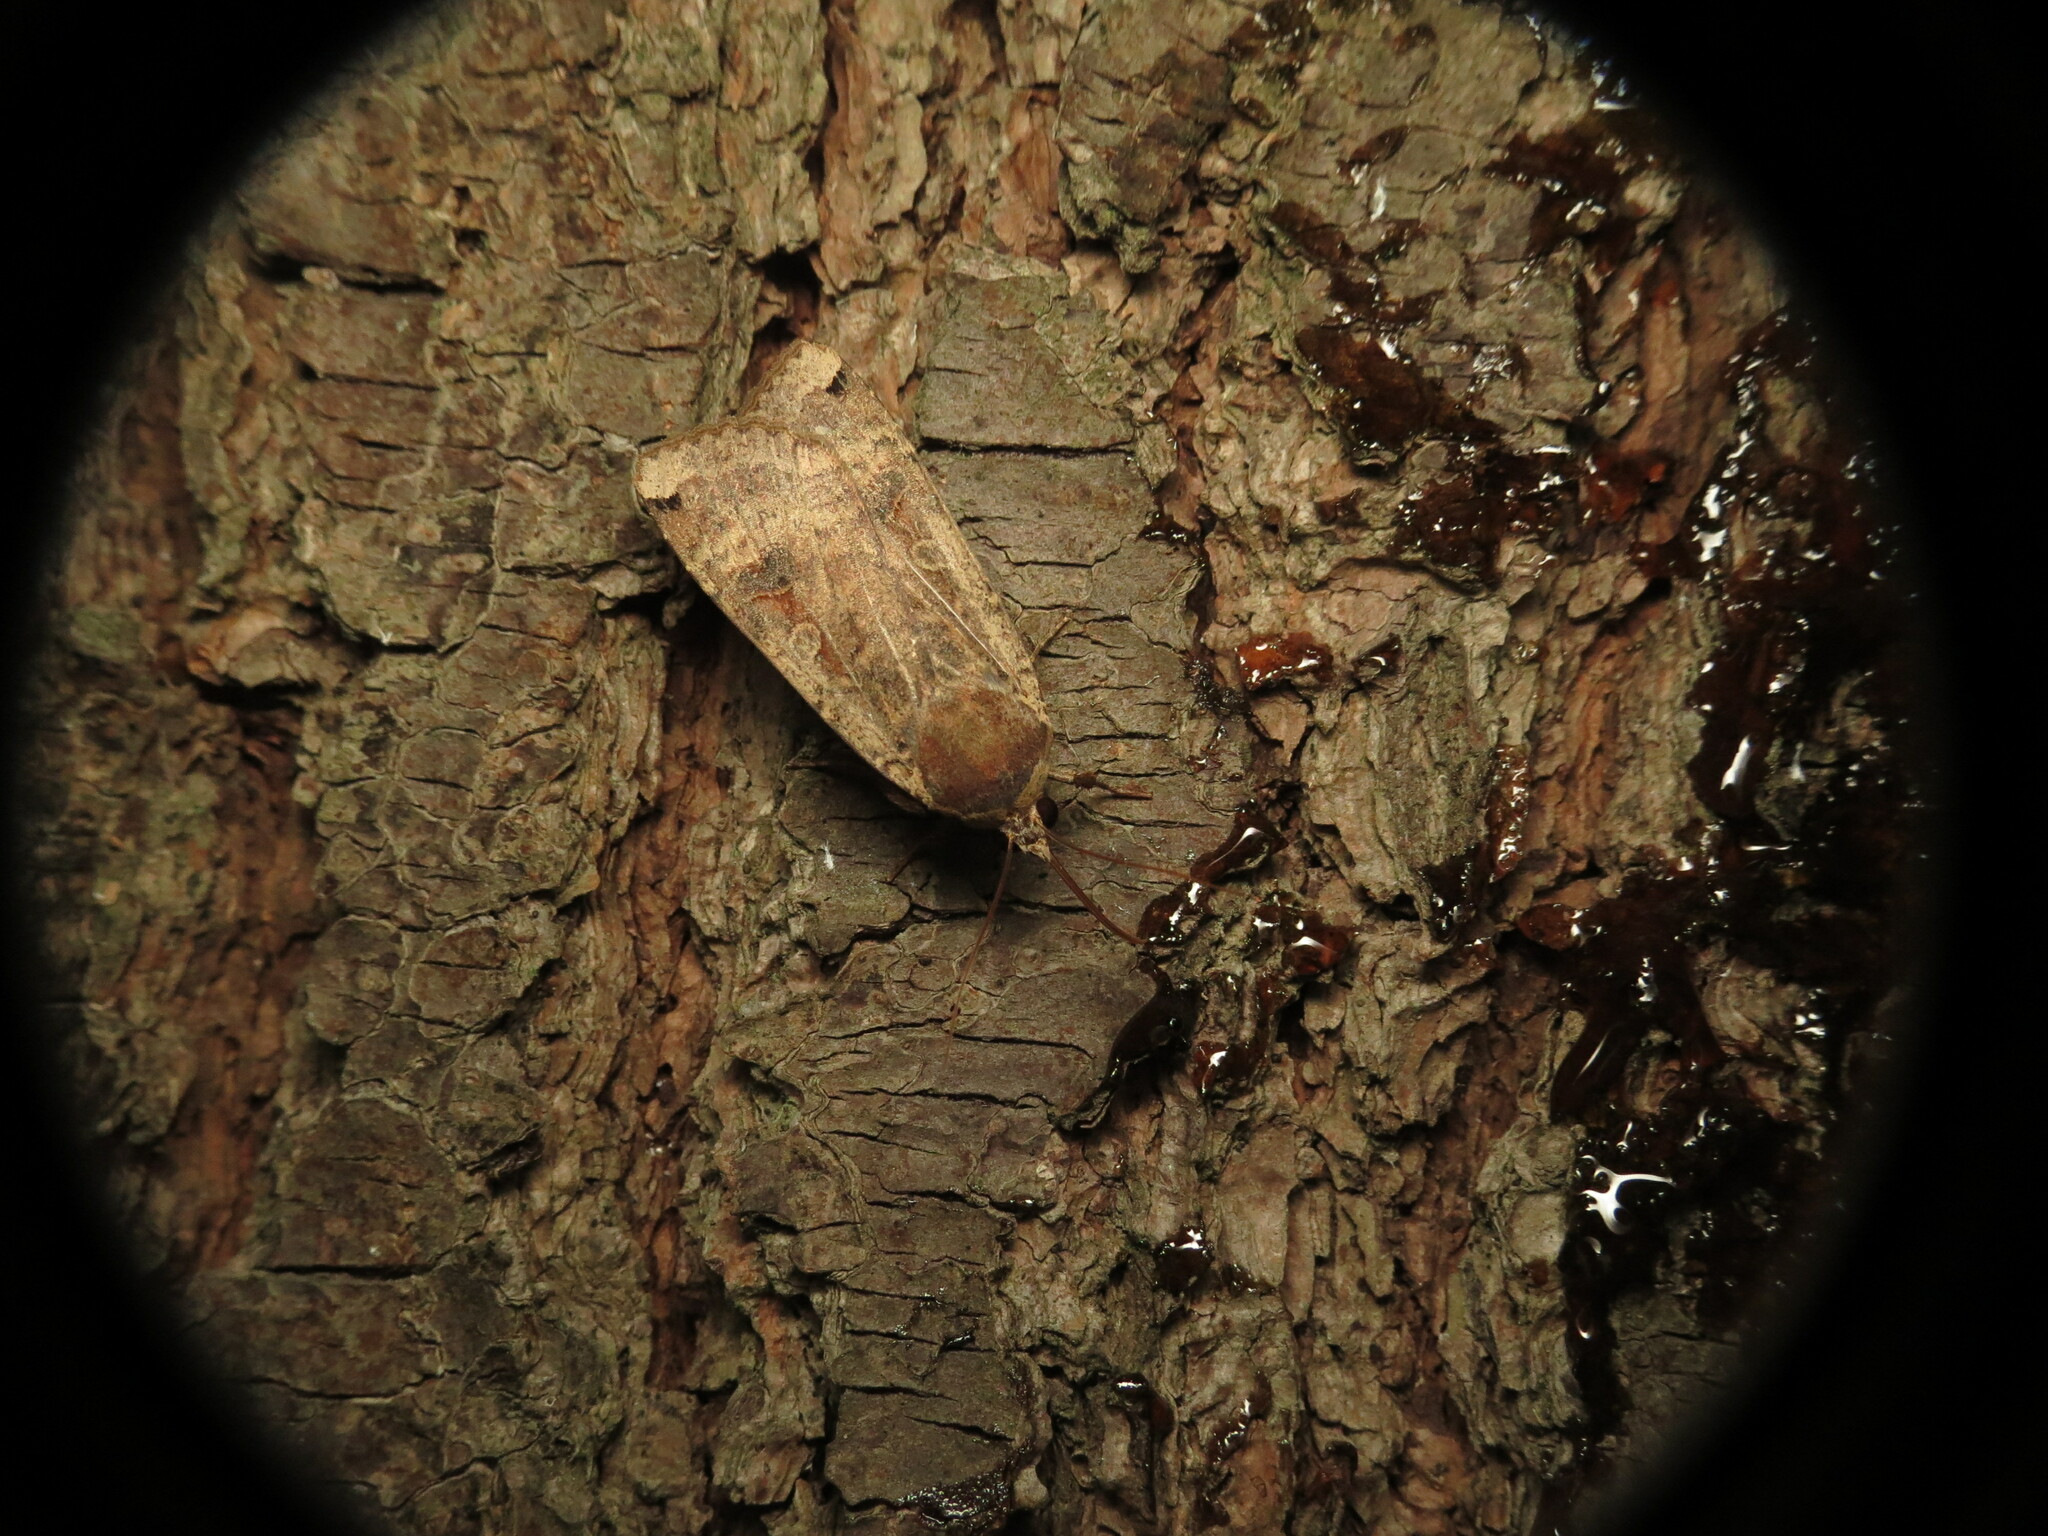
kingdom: Animalia
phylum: Arthropoda
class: Insecta
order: Lepidoptera
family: Noctuidae
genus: Noctua
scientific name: Noctua pronuba
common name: Large yellow underwing
